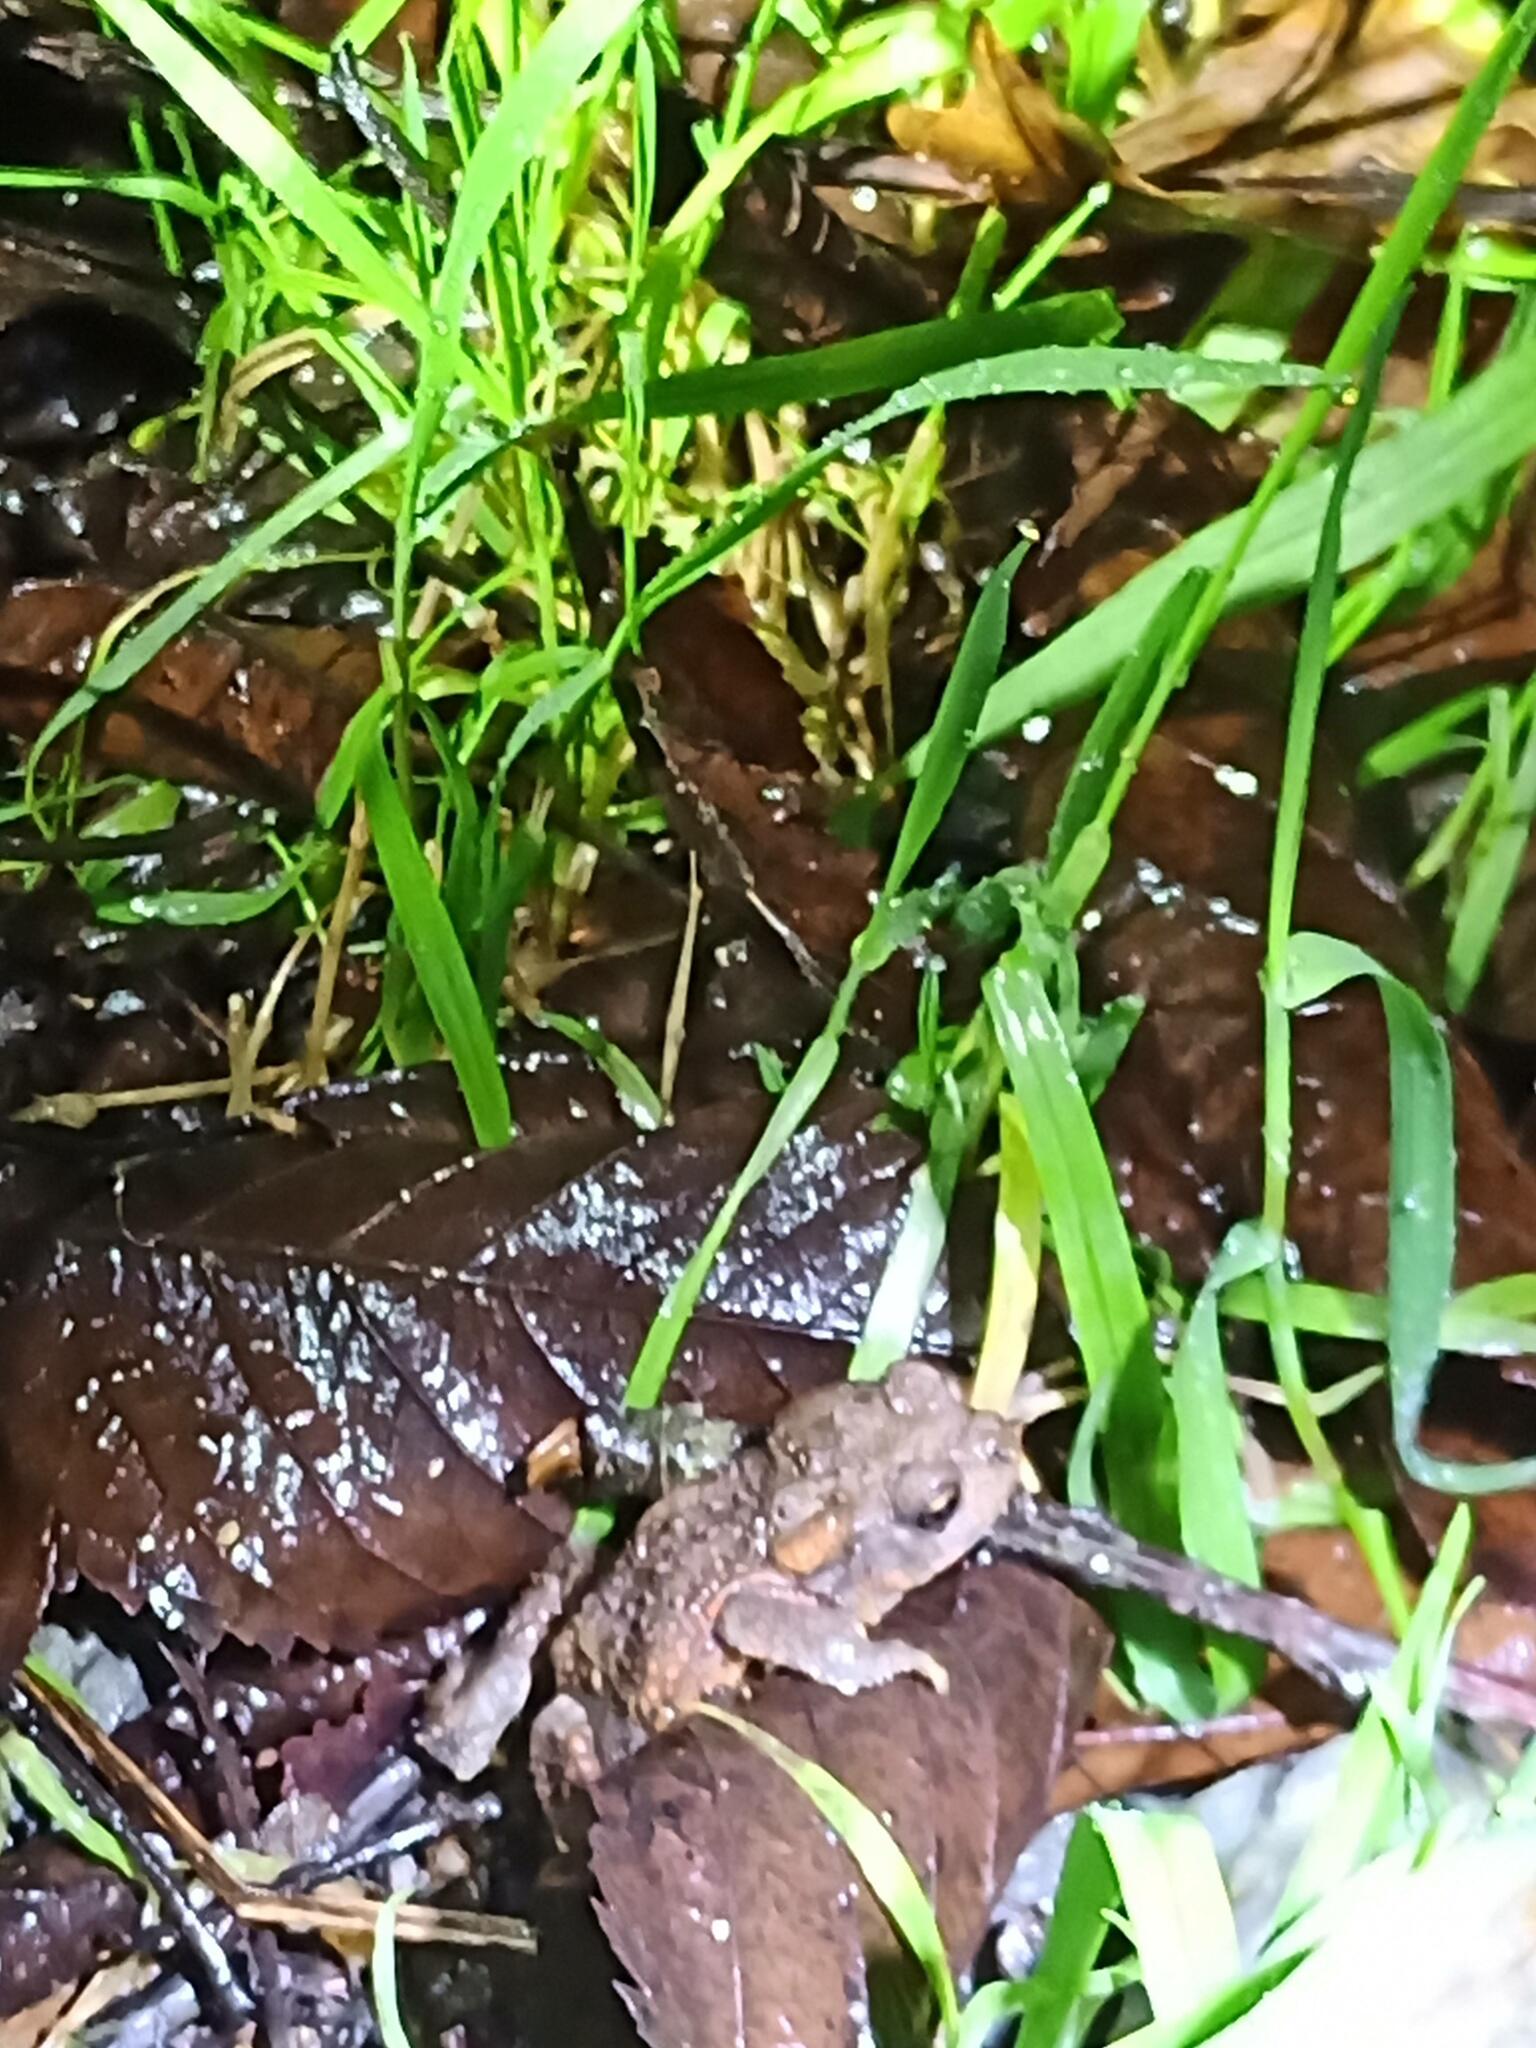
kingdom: Animalia
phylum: Chordata
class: Amphibia
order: Anura
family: Bufonidae
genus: Bufo
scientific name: Bufo spinosus
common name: Western common toad
